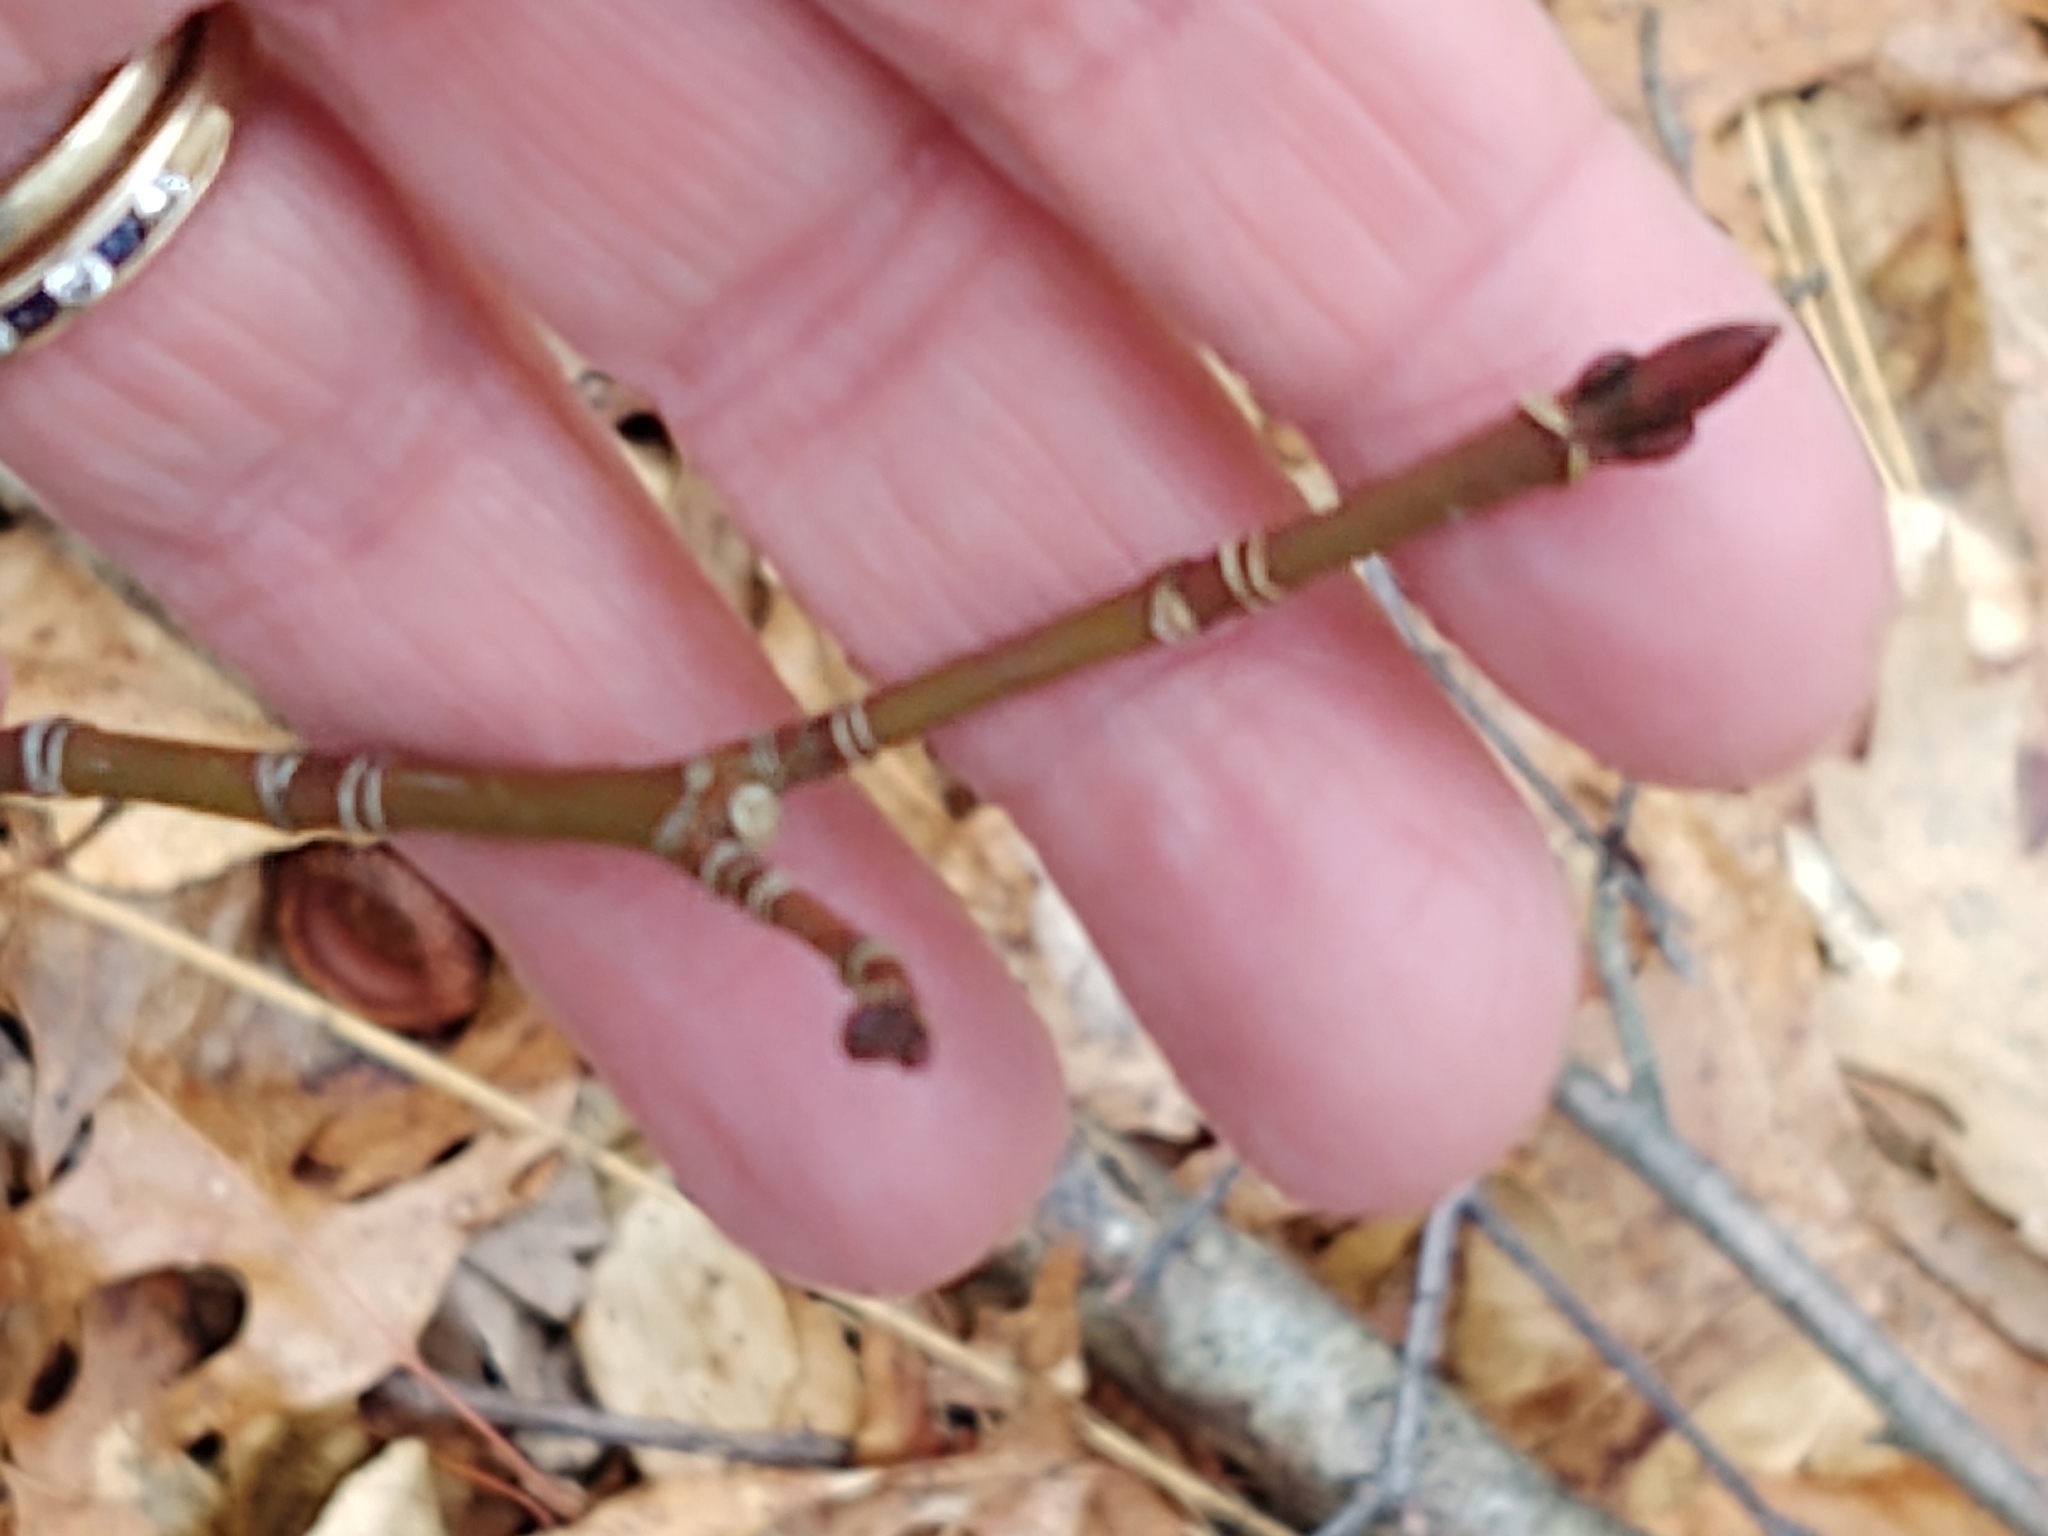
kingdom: Plantae
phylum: Tracheophyta
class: Magnoliopsida
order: Sapindales
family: Sapindaceae
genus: Acer
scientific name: Acer pensylvanicum
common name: Moosewood
